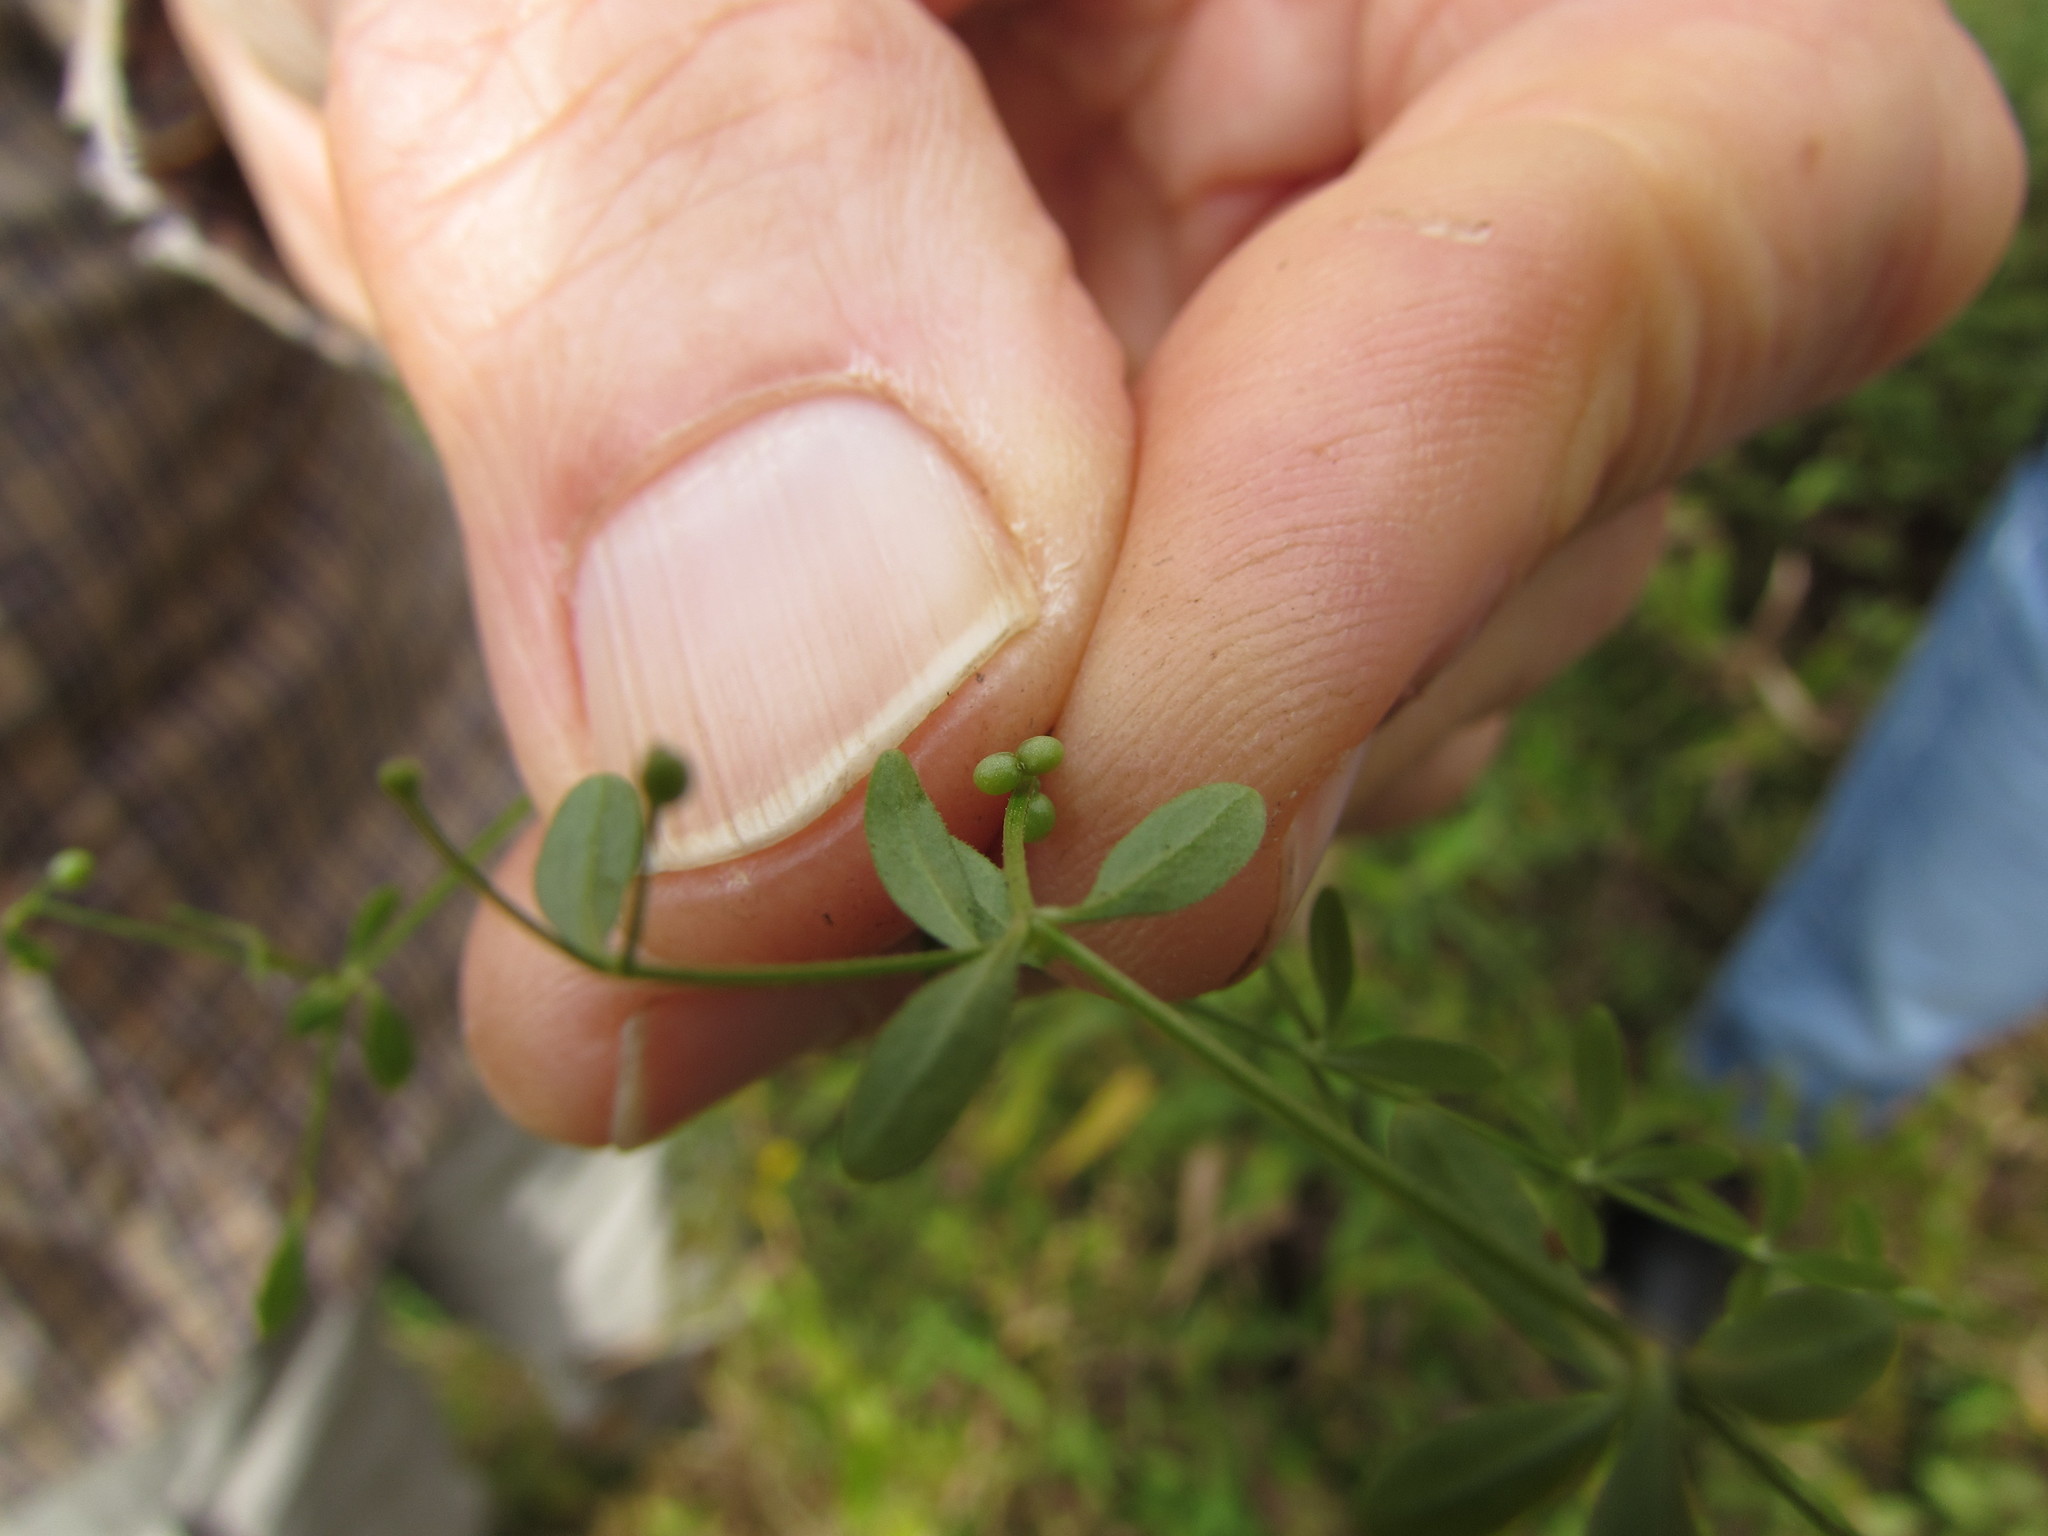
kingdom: Plantae
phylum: Tracheophyta
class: Magnoliopsida
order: Gentianales
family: Rubiaceae
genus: Galium
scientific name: Galium tinctorium
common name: Bedstraw
